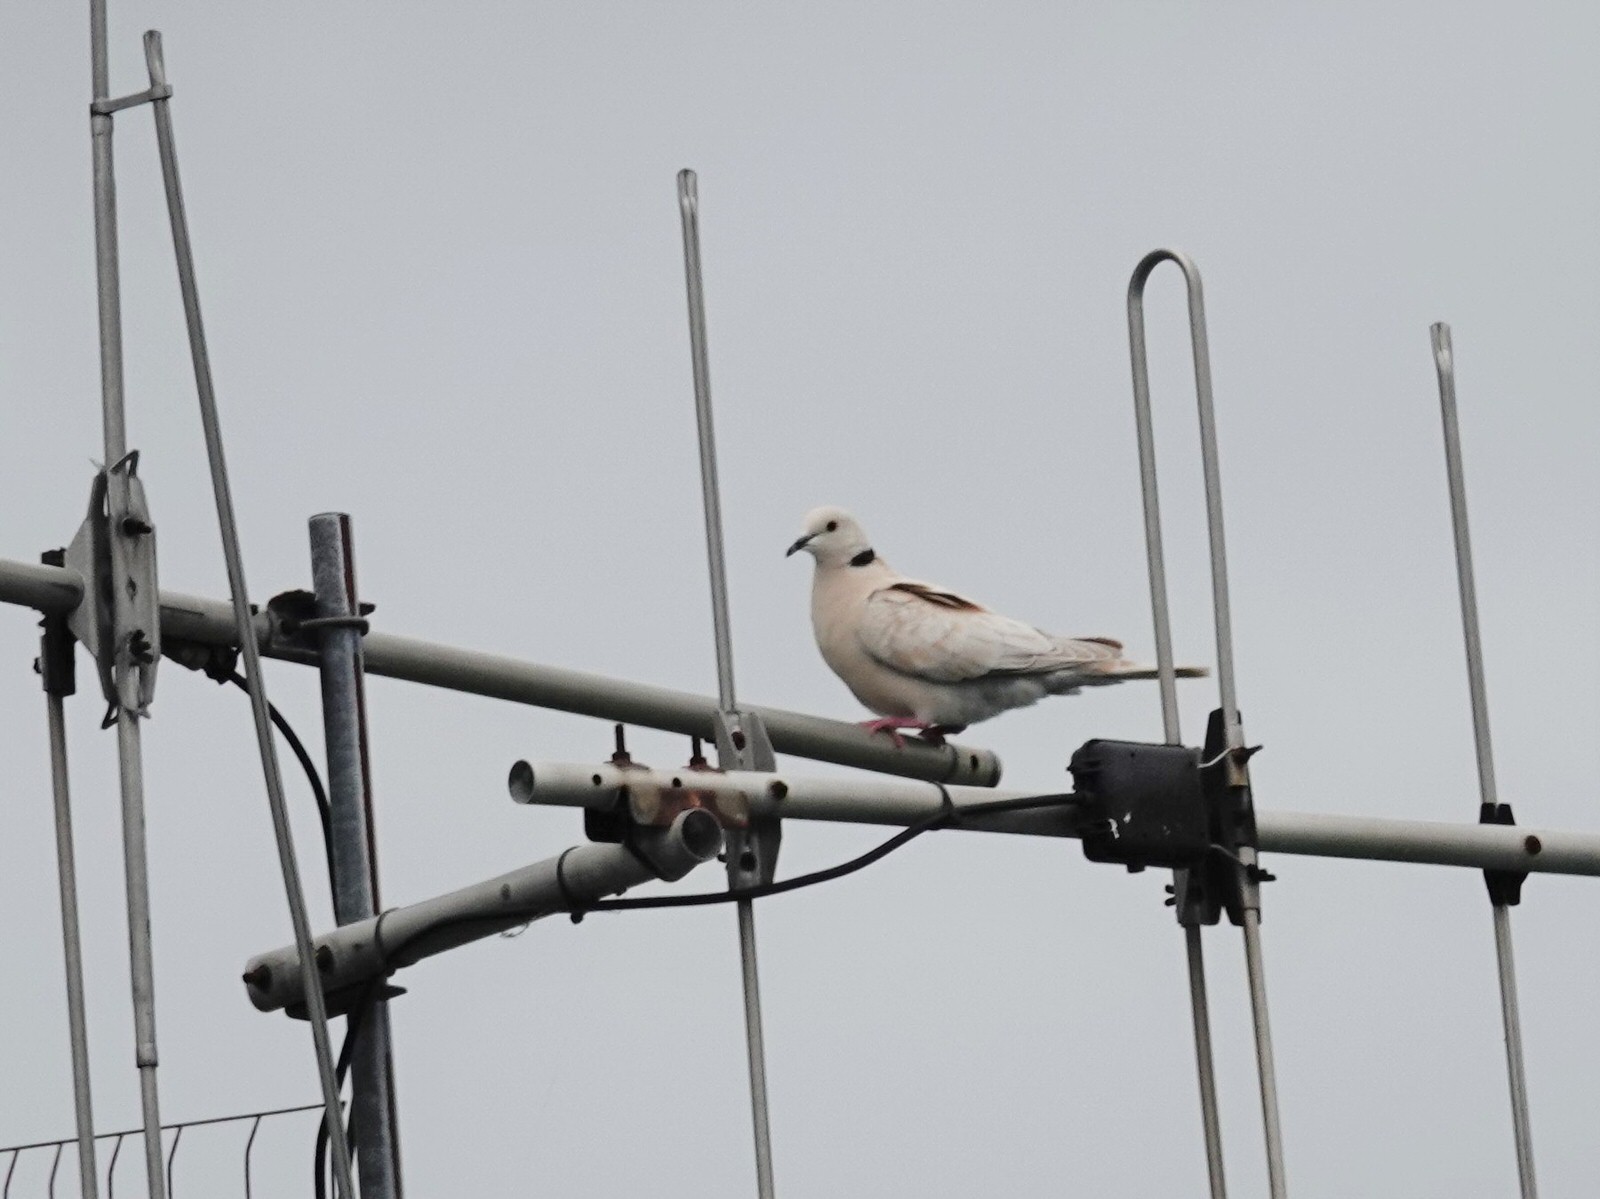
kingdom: Animalia
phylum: Chordata
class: Aves
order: Columbiformes
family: Columbidae
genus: Streptopelia
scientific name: Streptopelia roseogrisea
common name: African collared dove
